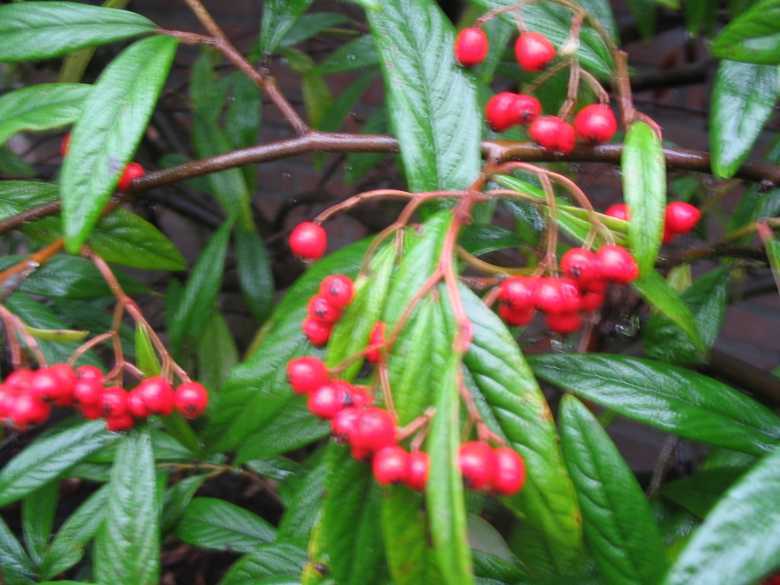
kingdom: Plantae
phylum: Tracheophyta
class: Magnoliopsida
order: Rosales
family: Rosaceae
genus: Cotoneaster
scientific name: Cotoneaster salicifolius
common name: Willow-leaved cotoneaster
